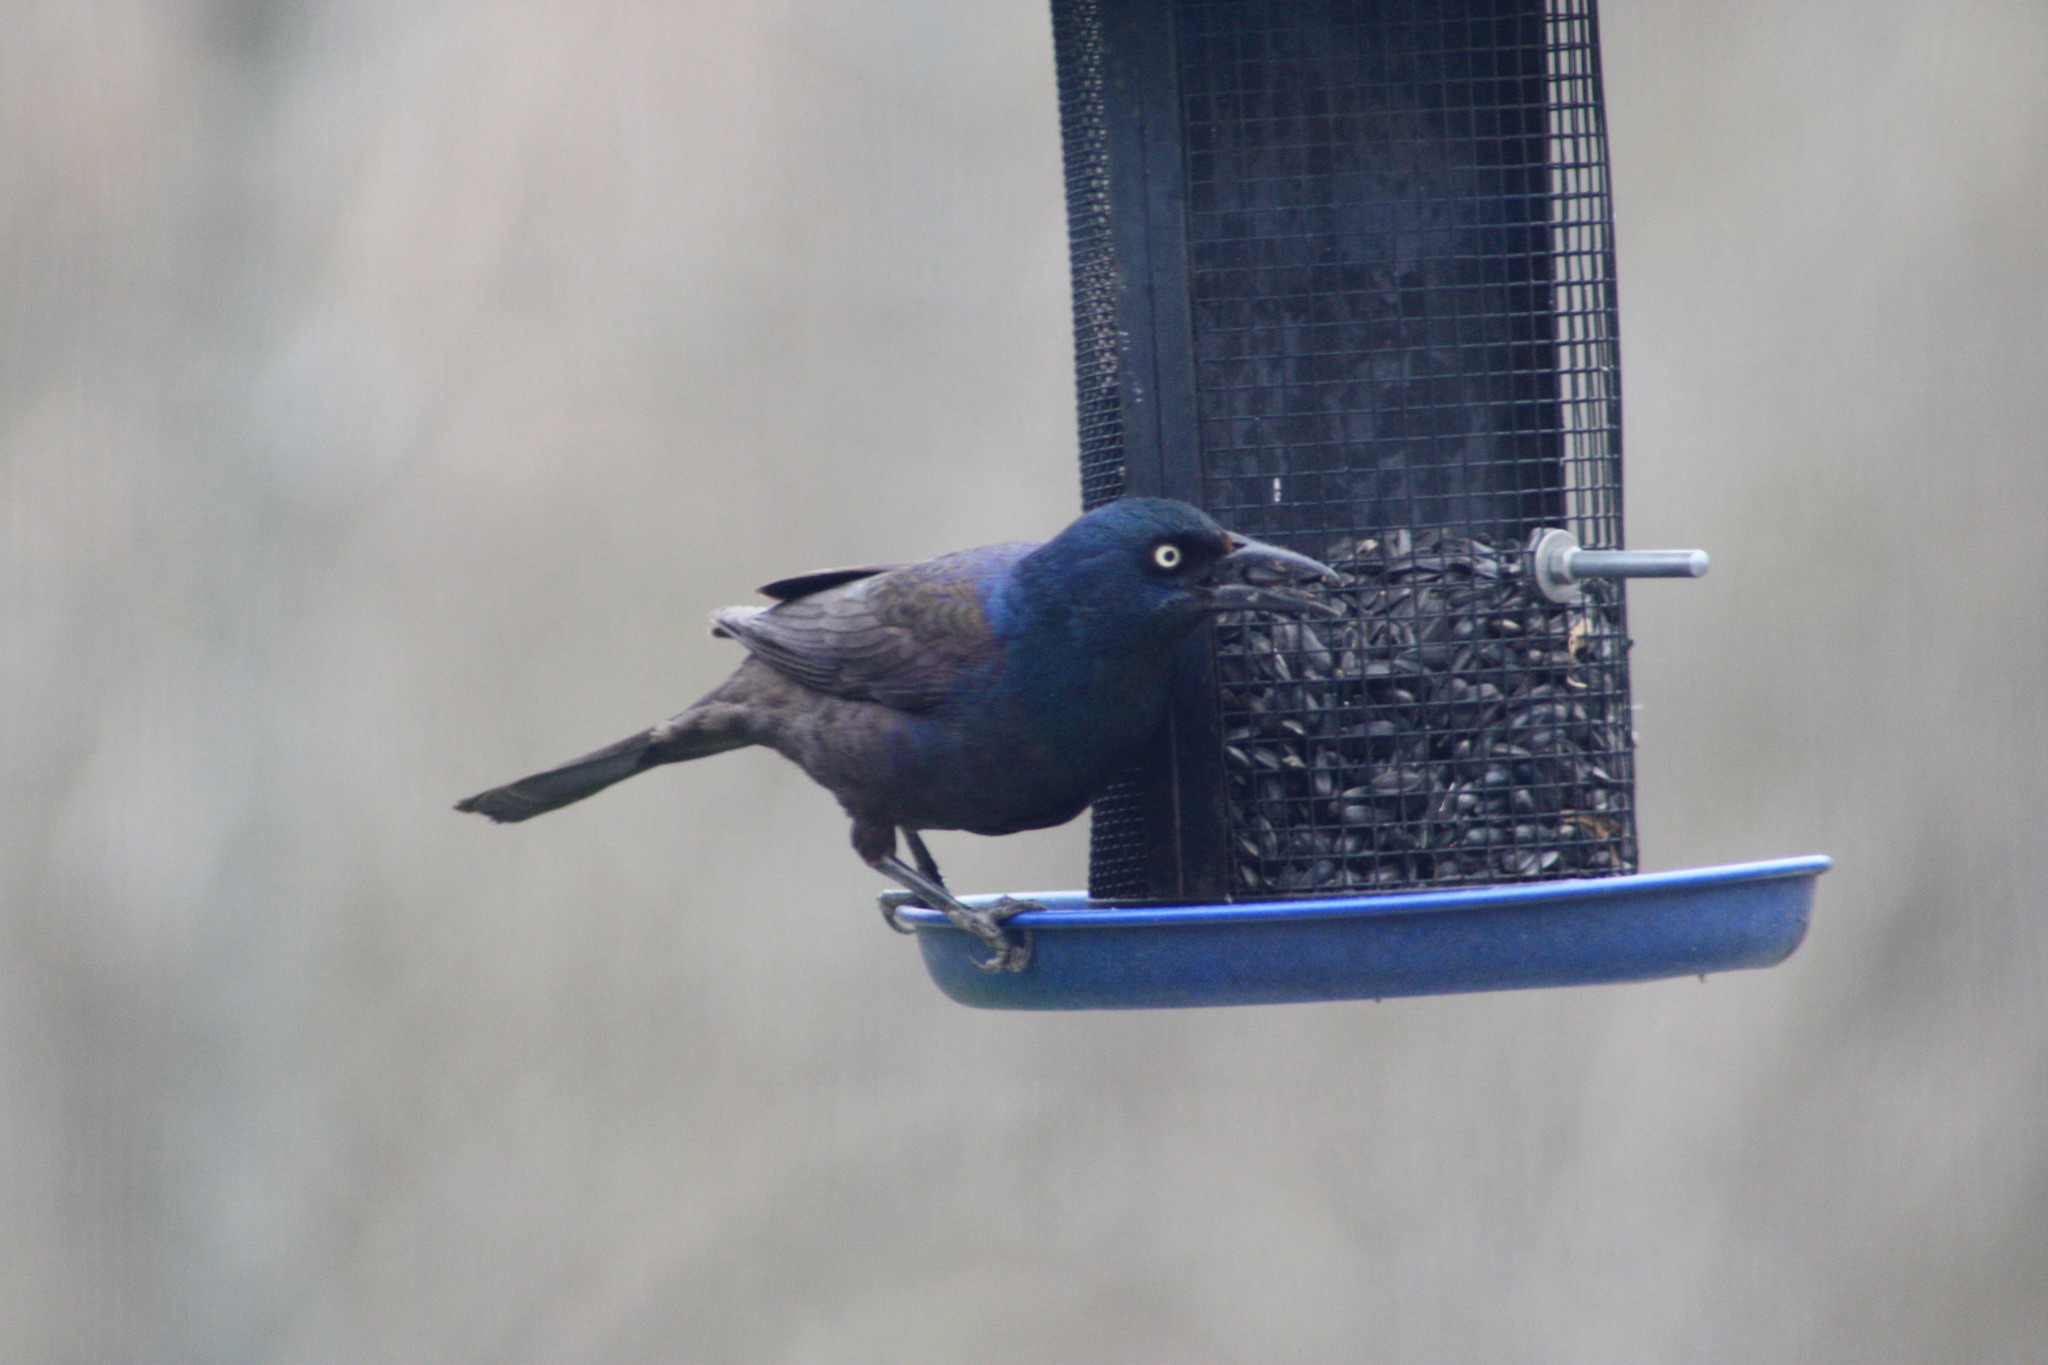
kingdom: Animalia
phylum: Chordata
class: Aves
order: Passeriformes
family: Icteridae
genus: Quiscalus
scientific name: Quiscalus quiscula
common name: Common grackle
